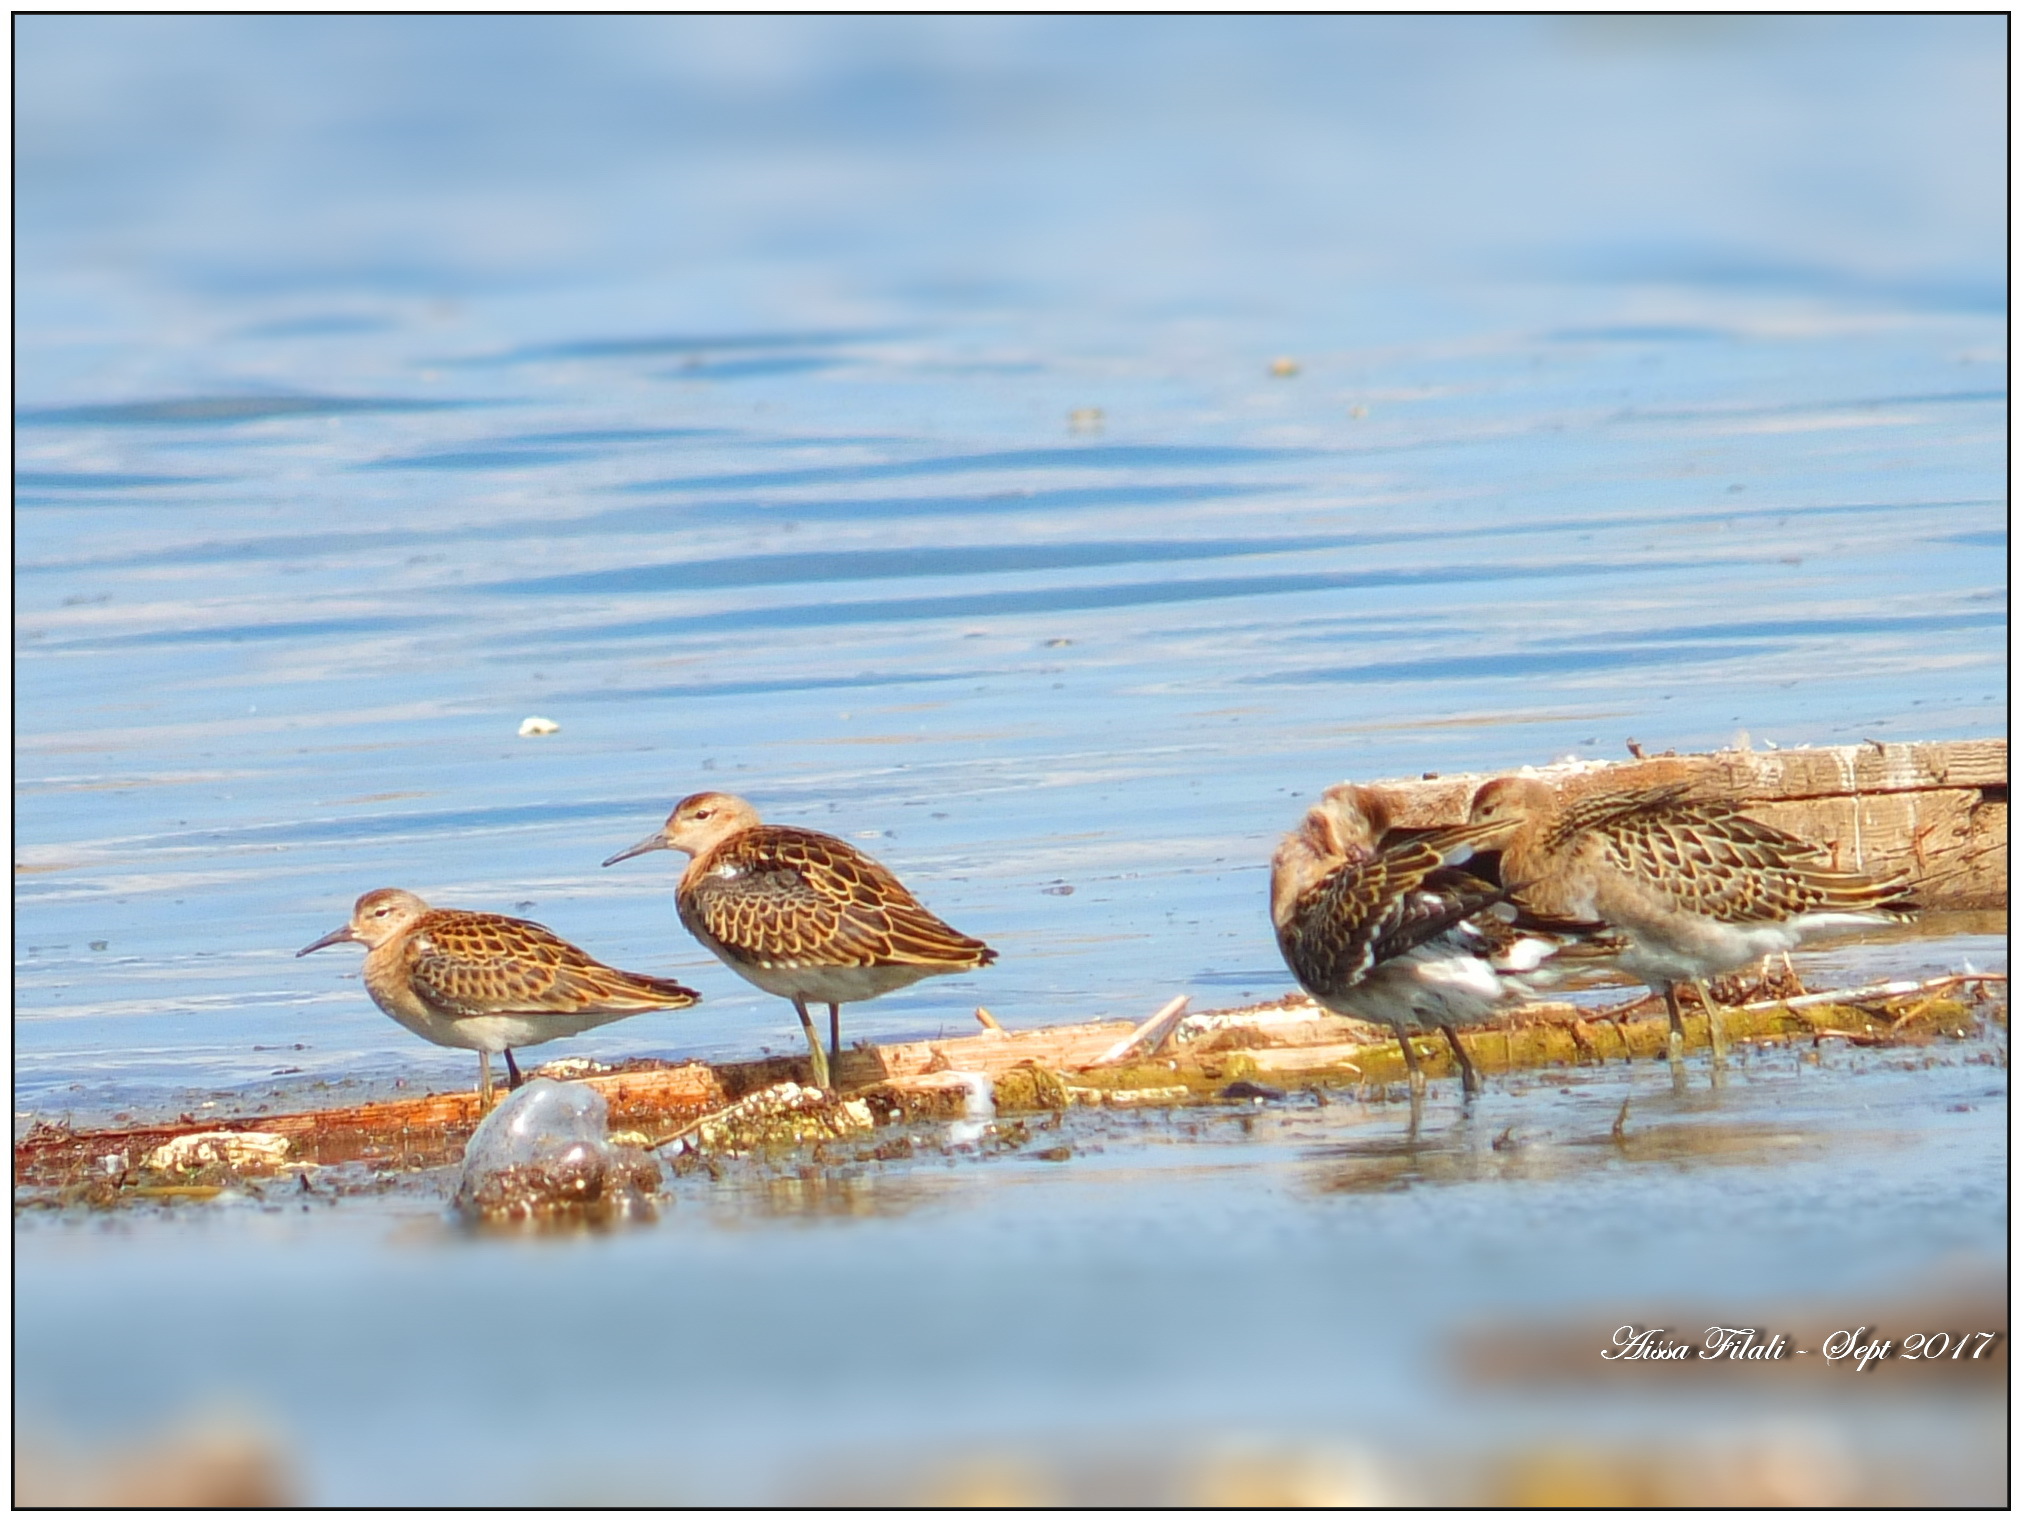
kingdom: Animalia
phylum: Chordata
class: Aves
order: Charadriiformes
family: Scolopacidae
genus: Calidris
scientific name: Calidris pugnax
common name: Ruff
